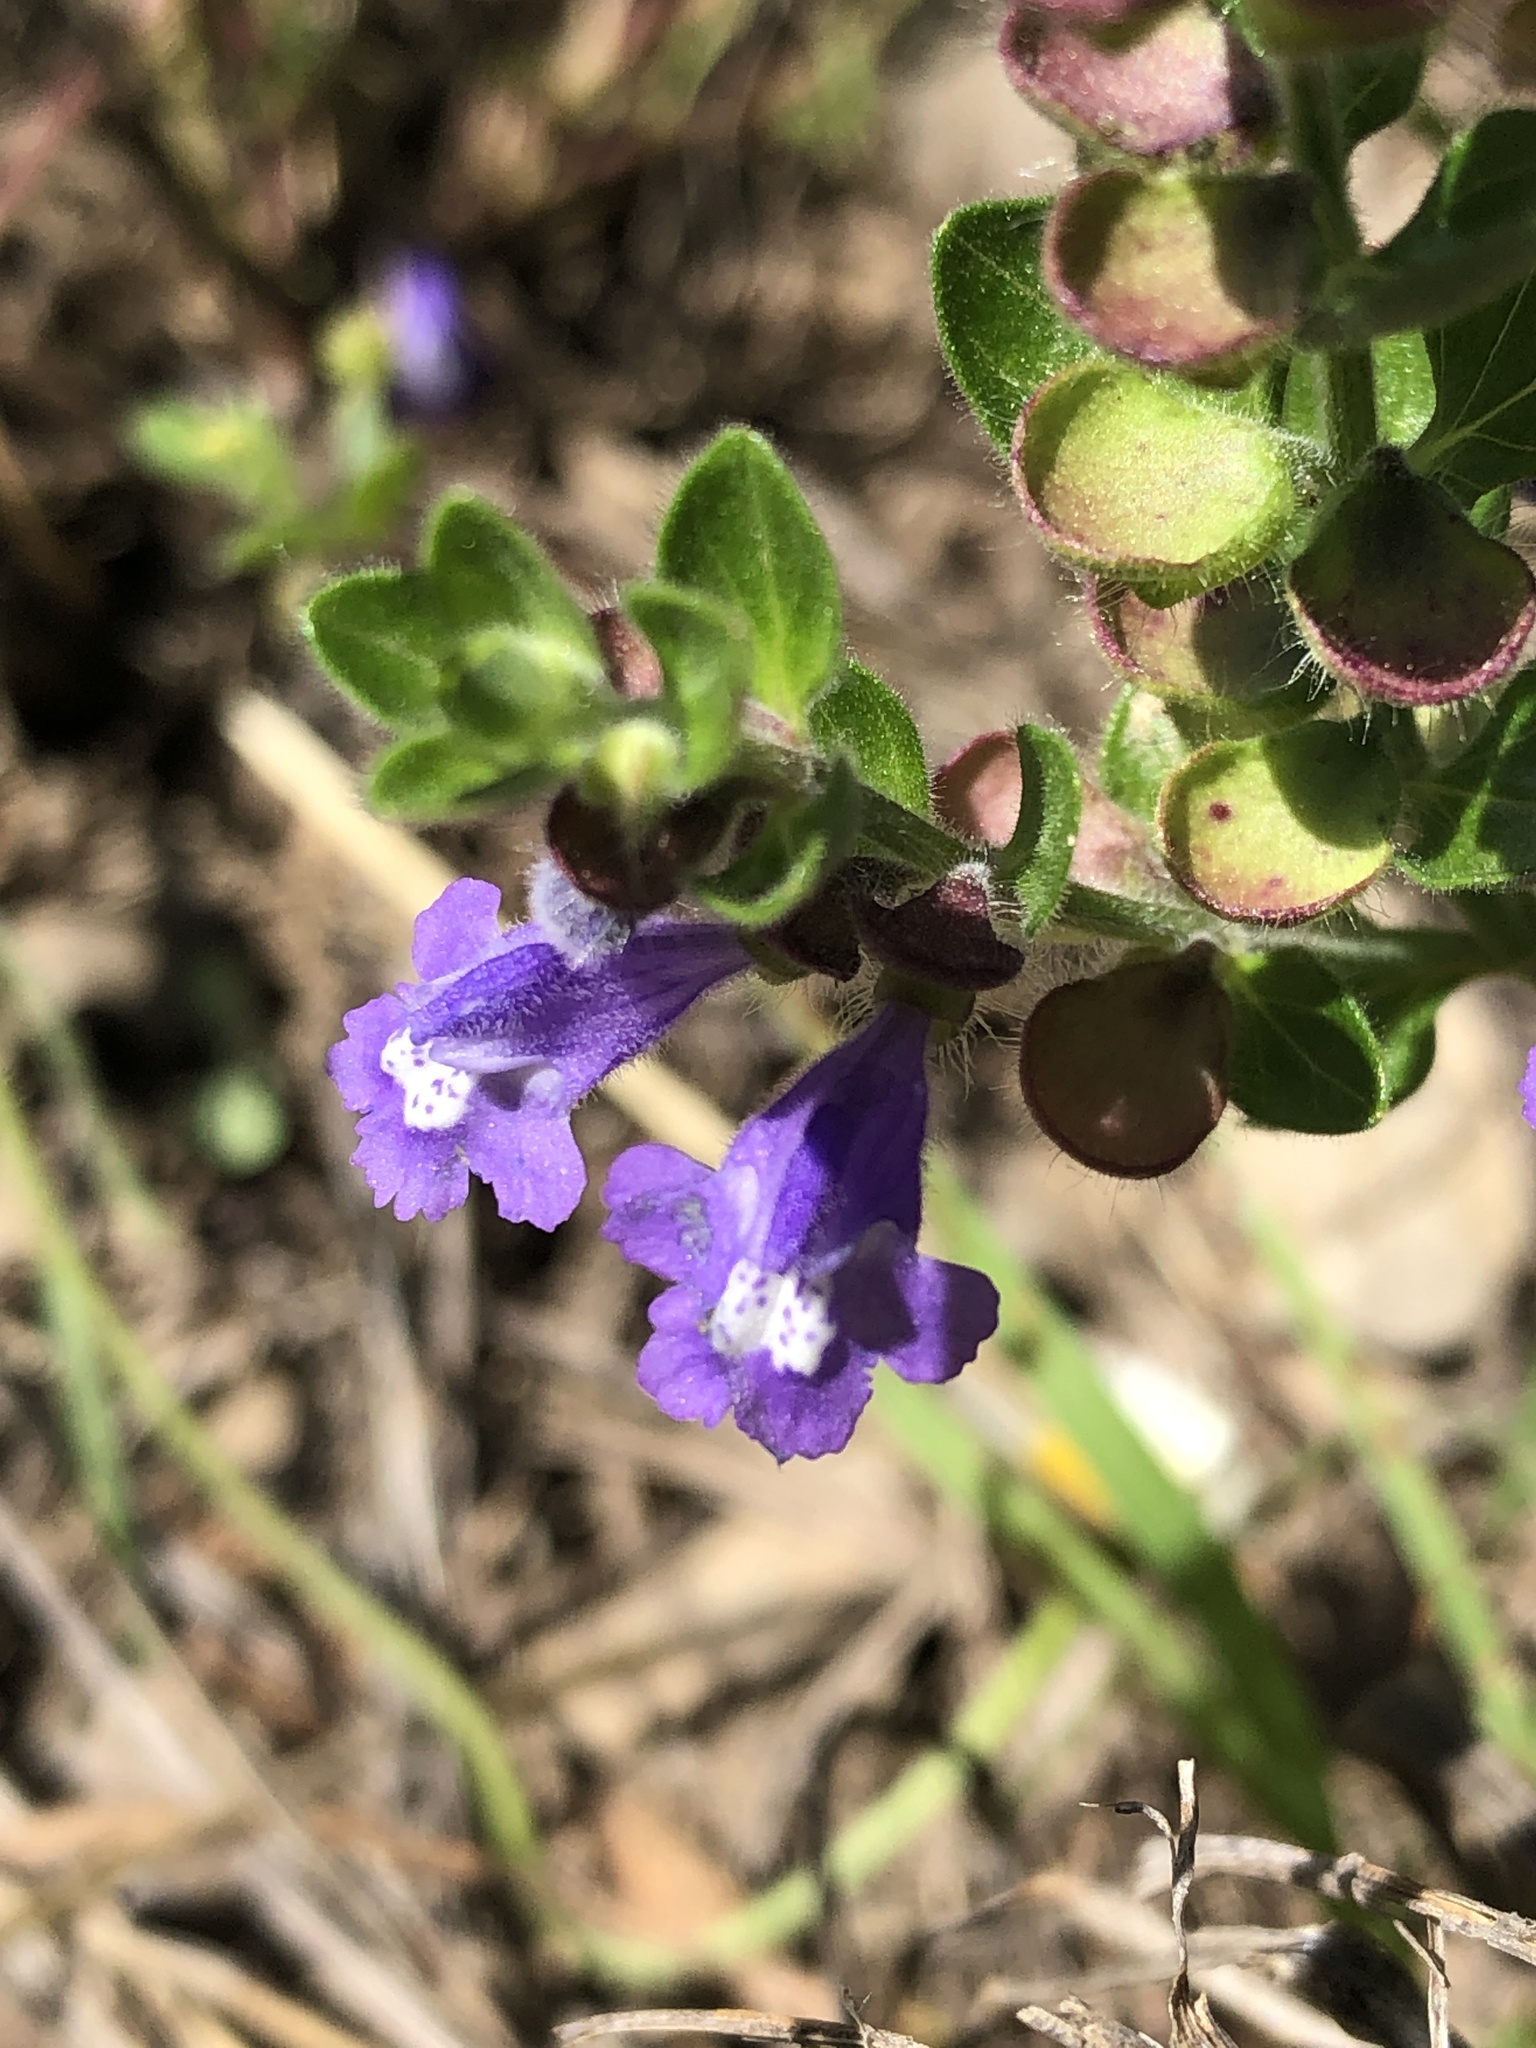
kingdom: Plantae
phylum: Tracheophyta
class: Magnoliopsida
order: Lamiales
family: Lamiaceae
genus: Scutellaria
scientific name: Scutellaria drummondii
